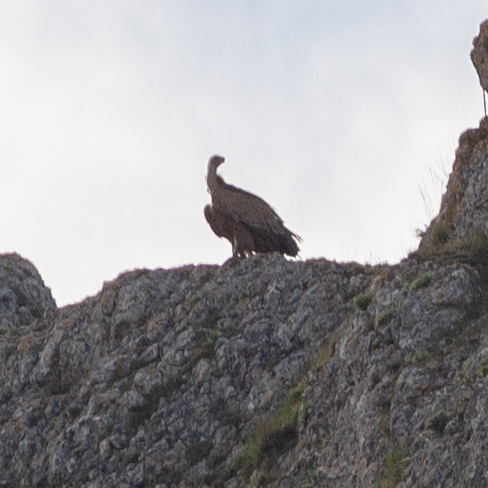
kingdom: Animalia
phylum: Chordata
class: Aves
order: Accipitriformes
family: Accipitridae
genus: Gyps
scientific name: Gyps fulvus
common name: Griffon vulture
